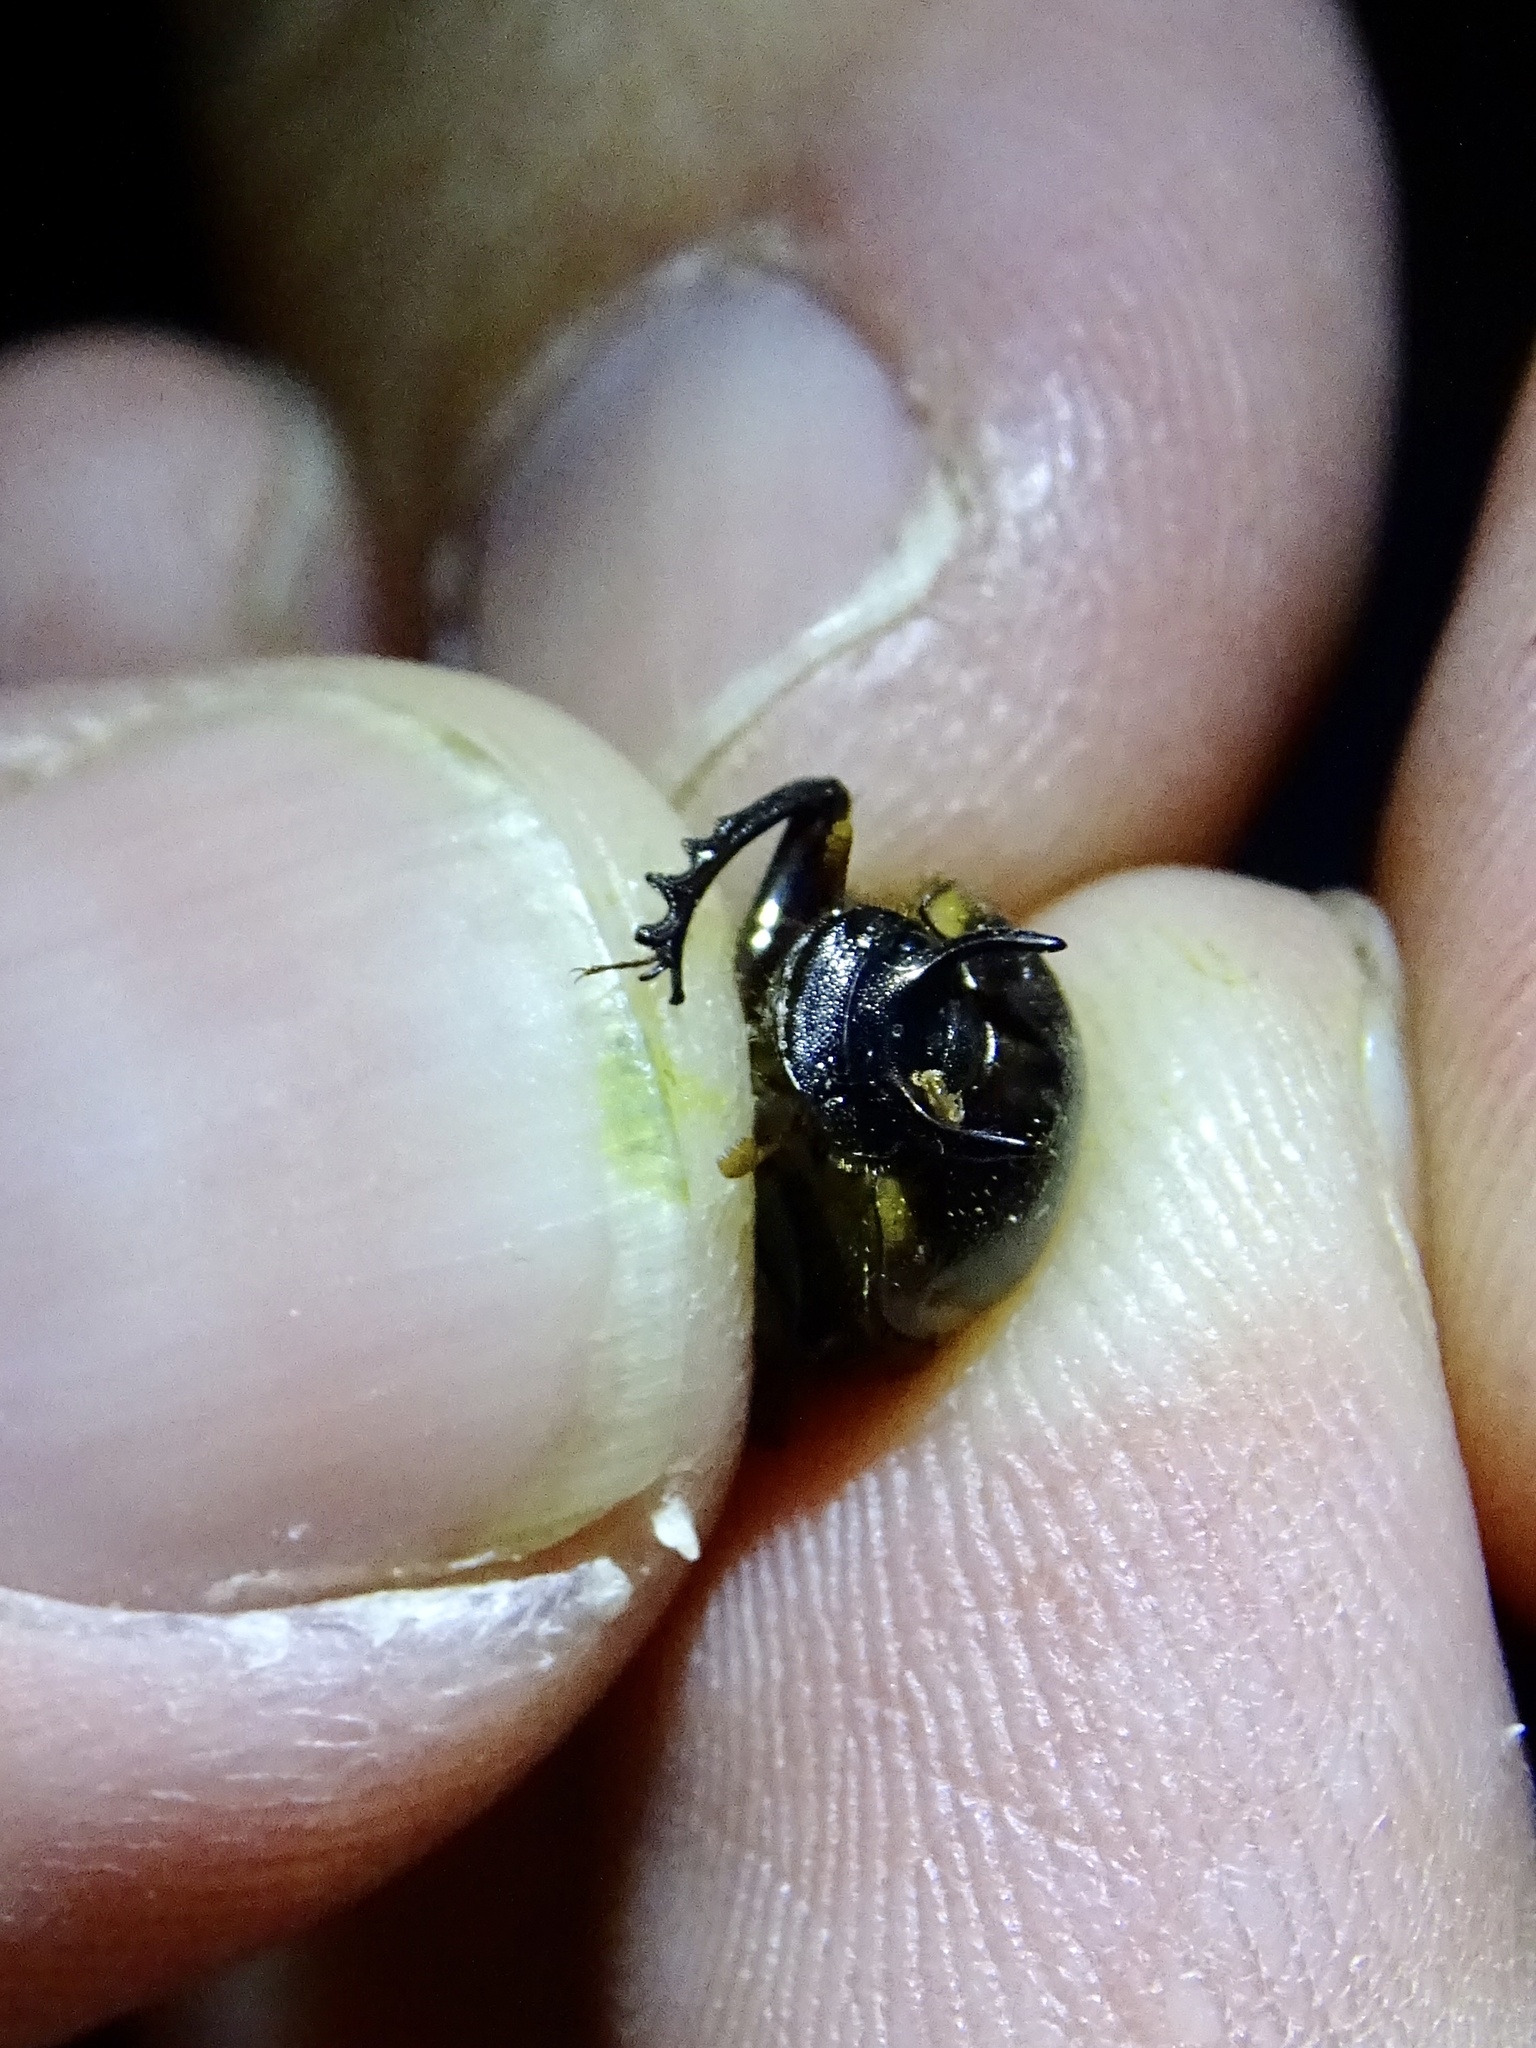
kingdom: Animalia
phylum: Arthropoda
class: Insecta
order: Coleoptera
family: Scarabaeidae
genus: Digitonthophagus
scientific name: Digitonthophagus gazella
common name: Brown dung beetle
